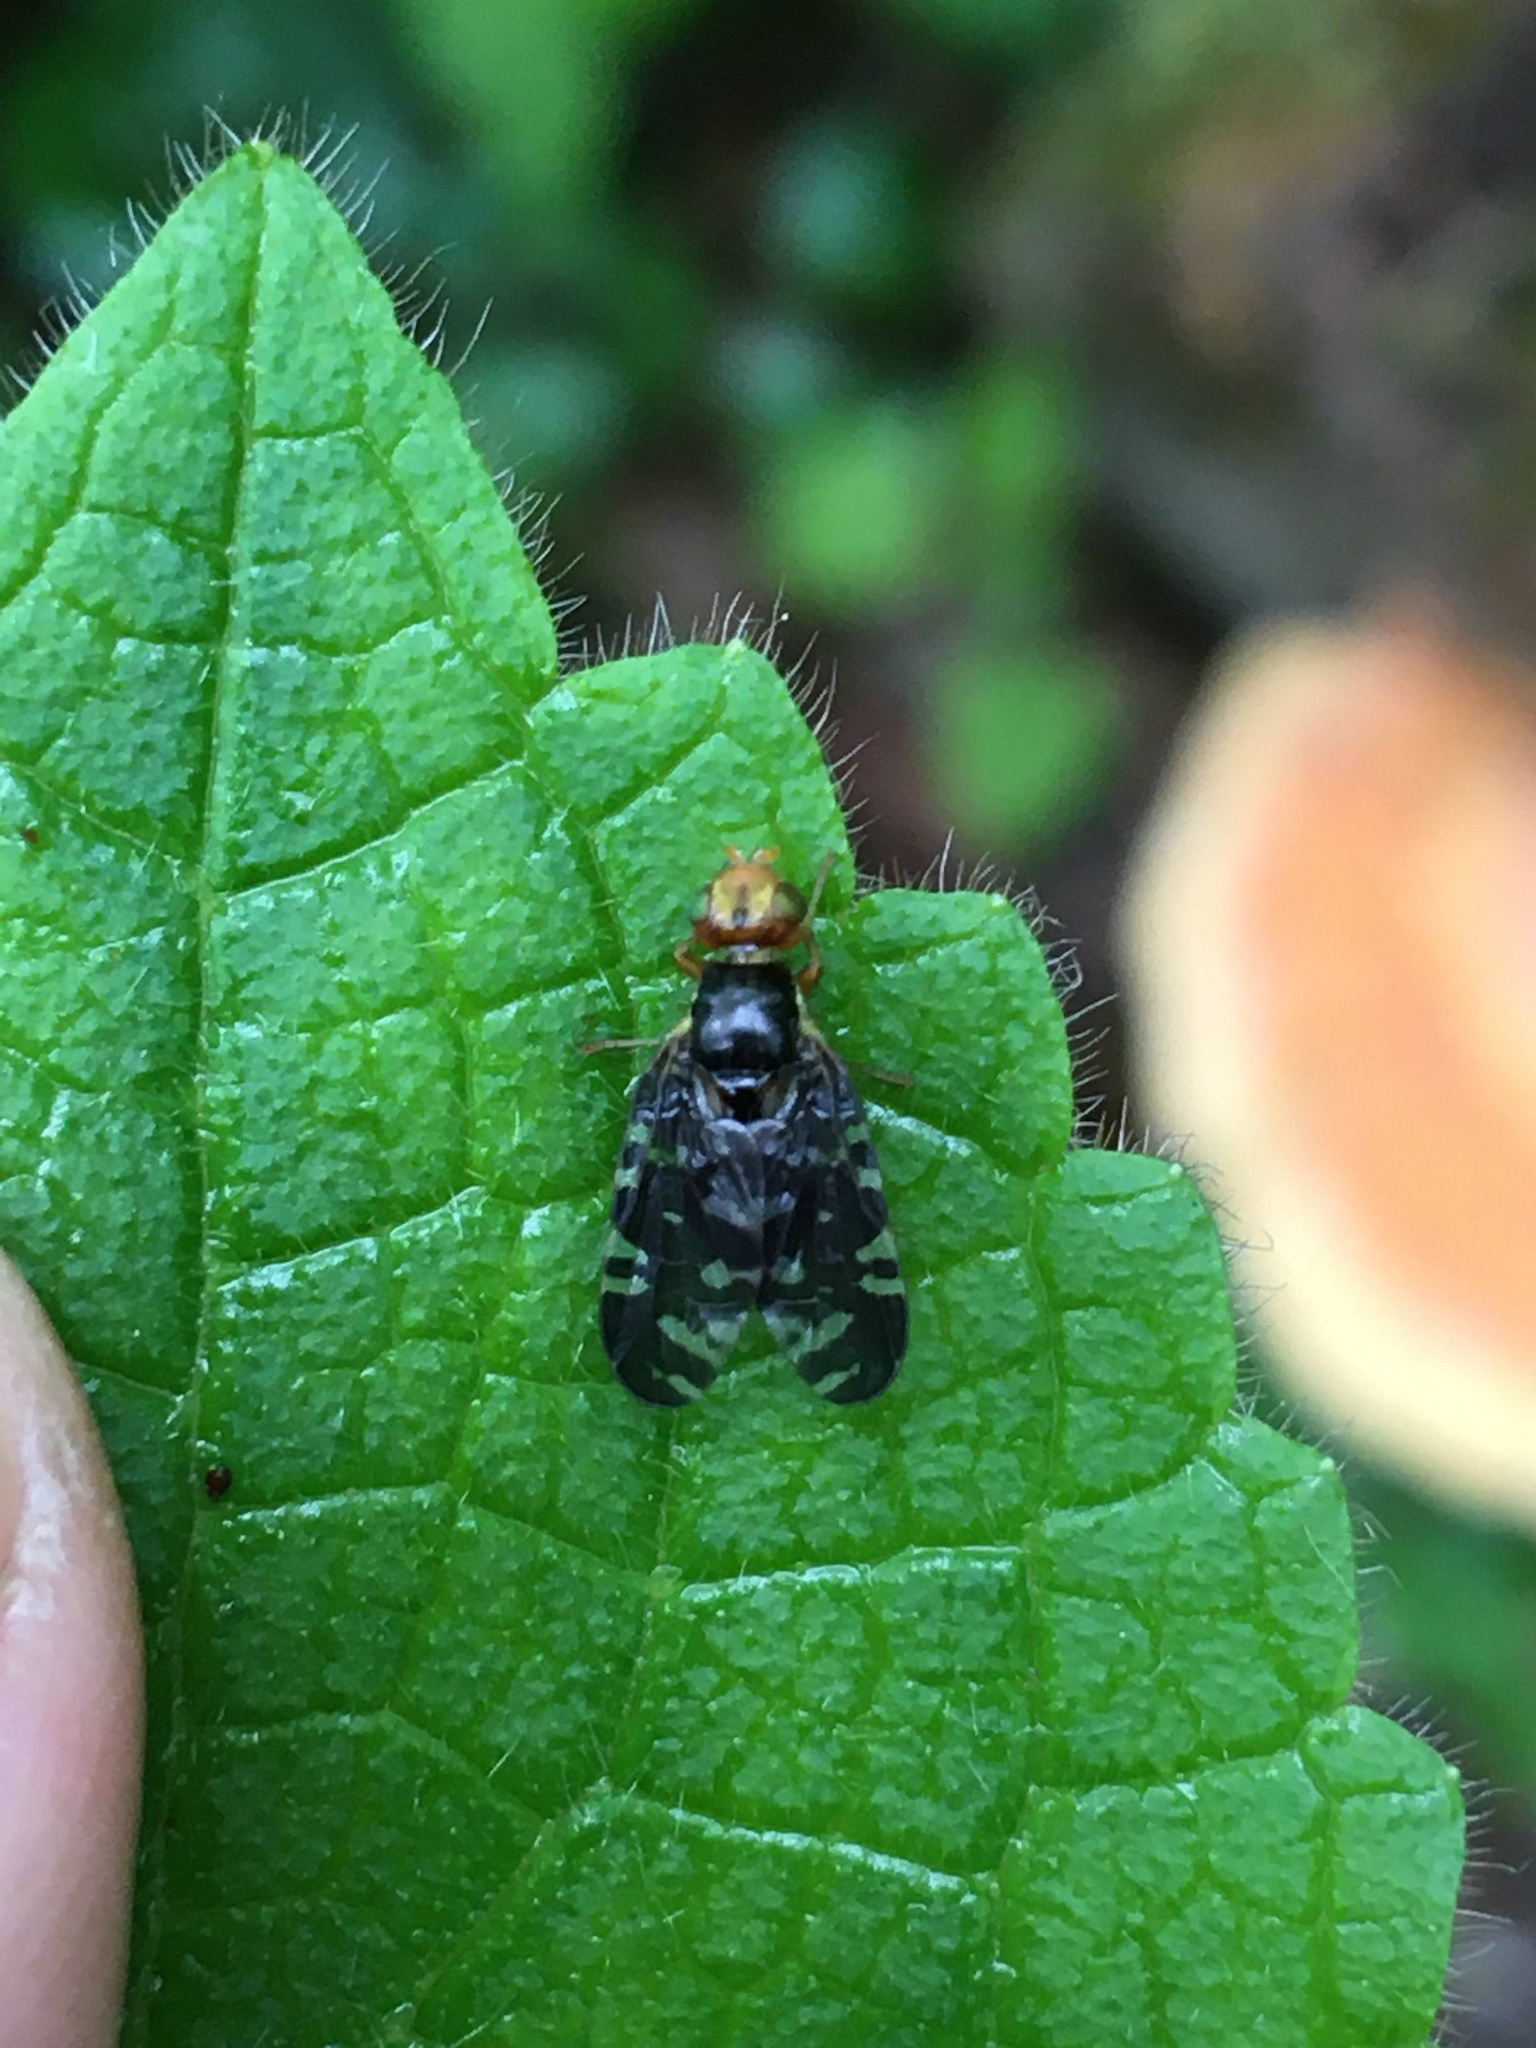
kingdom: Animalia
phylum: Arthropoda
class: Insecta
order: Diptera
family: Tephritidae
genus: Platyparea
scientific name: Platyparea discoidea
